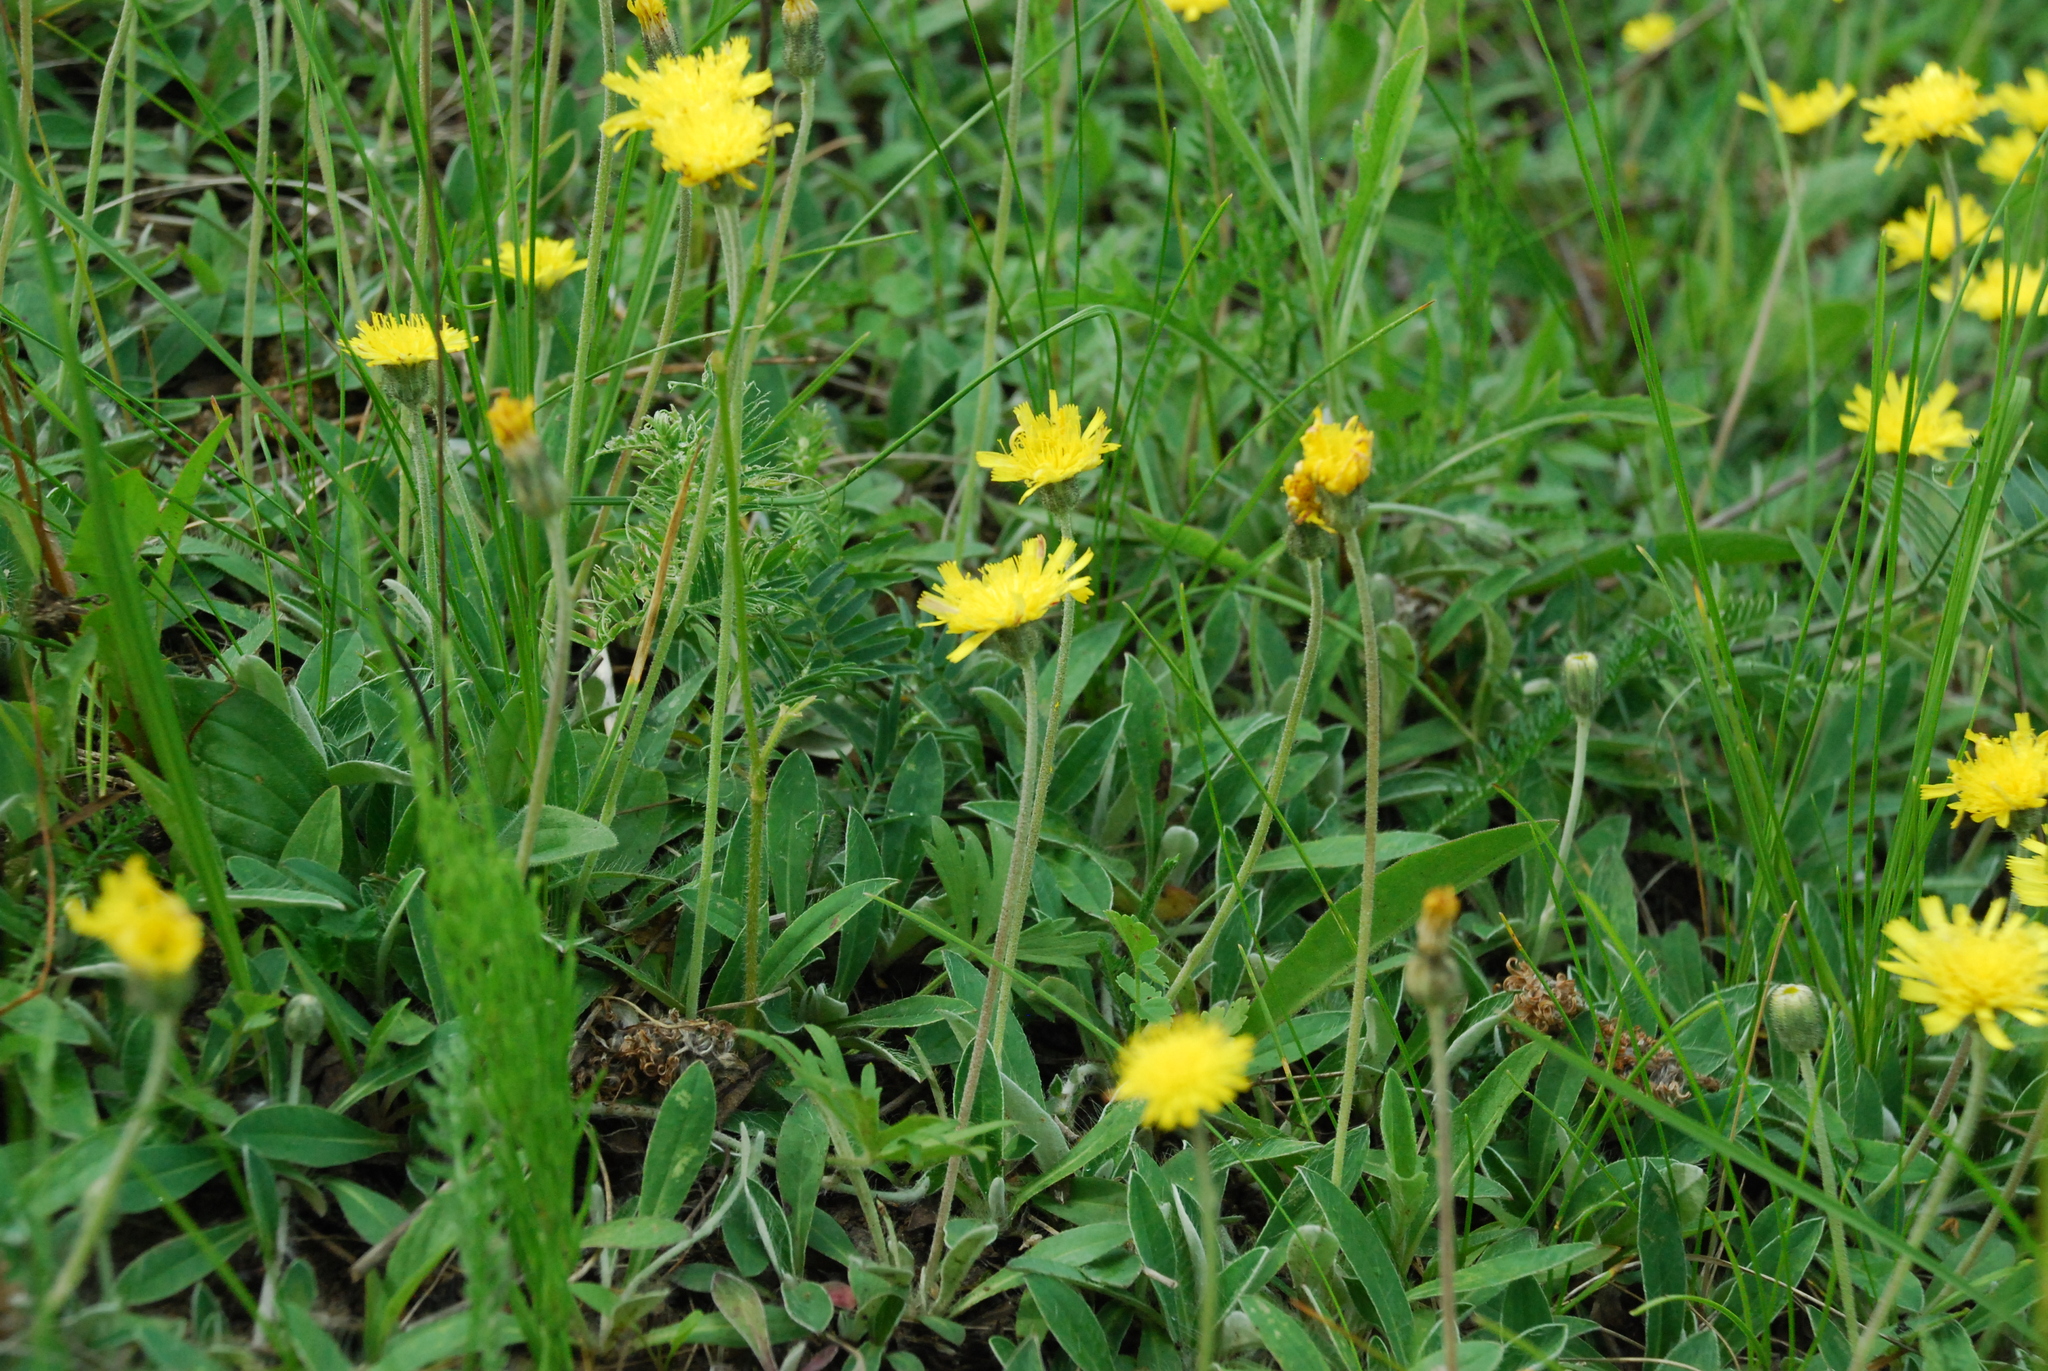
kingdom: Plantae
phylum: Tracheophyta
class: Magnoliopsida
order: Asterales
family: Asteraceae
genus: Pilosella
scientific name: Pilosella officinarum
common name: Mouse-ear hawkweed
